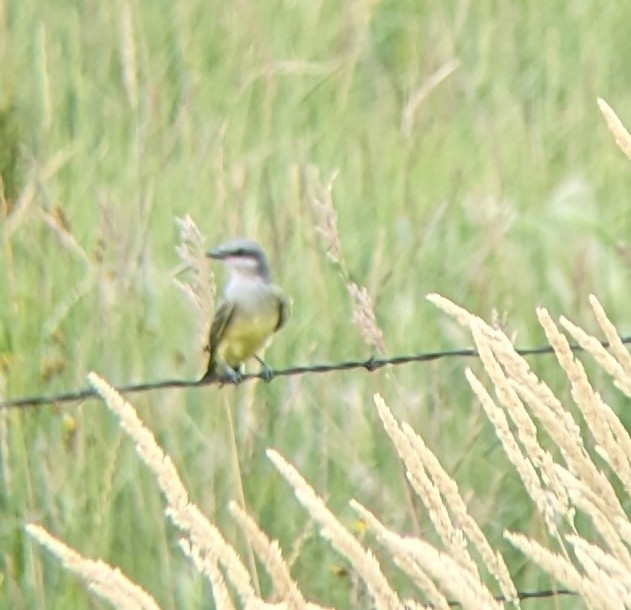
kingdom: Animalia
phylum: Chordata
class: Aves
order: Passeriformes
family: Tyrannidae
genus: Tyrannus
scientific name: Tyrannus verticalis
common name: Western kingbird
